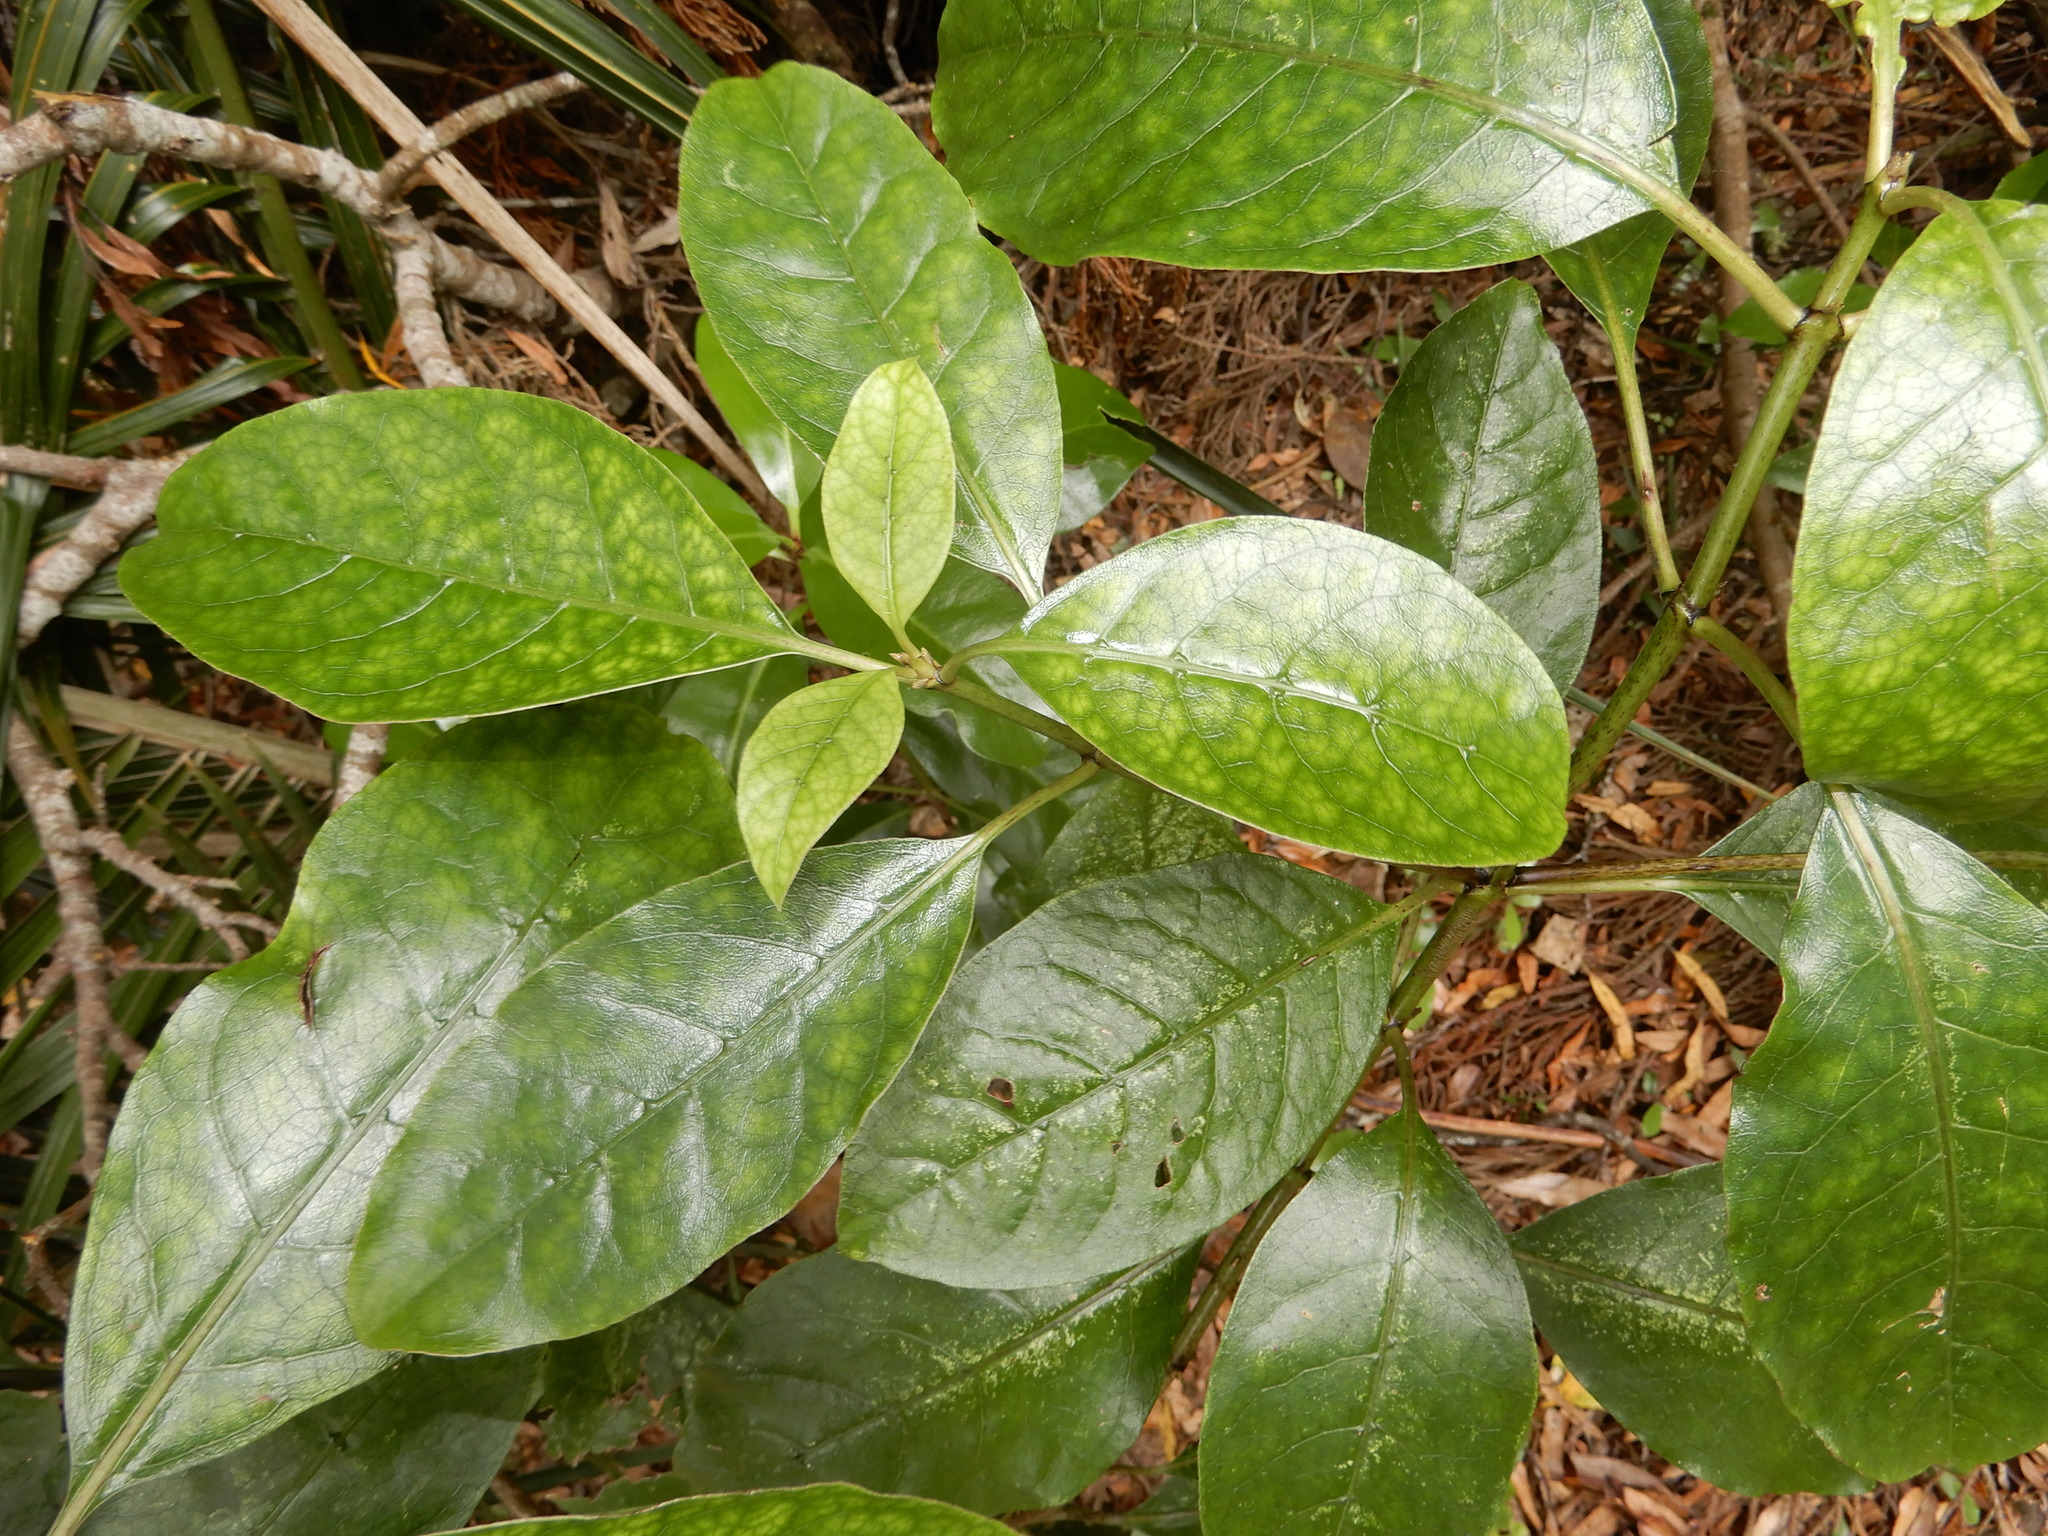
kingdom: Plantae
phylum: Tracheophyta
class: Magnoliopsida
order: Gentianales
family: Rubiaceae
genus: Coprosma
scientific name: Coprosma autumnalis
